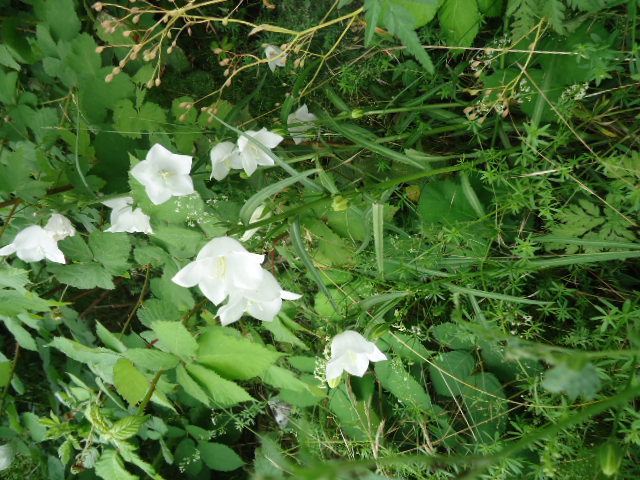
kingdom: Plantae
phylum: Tracheophyta
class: Magnoliopsida
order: Asterales
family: Campanulaceae
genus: Campanula
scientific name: Campanula persicifolia
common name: Peach-leaved bellflower
